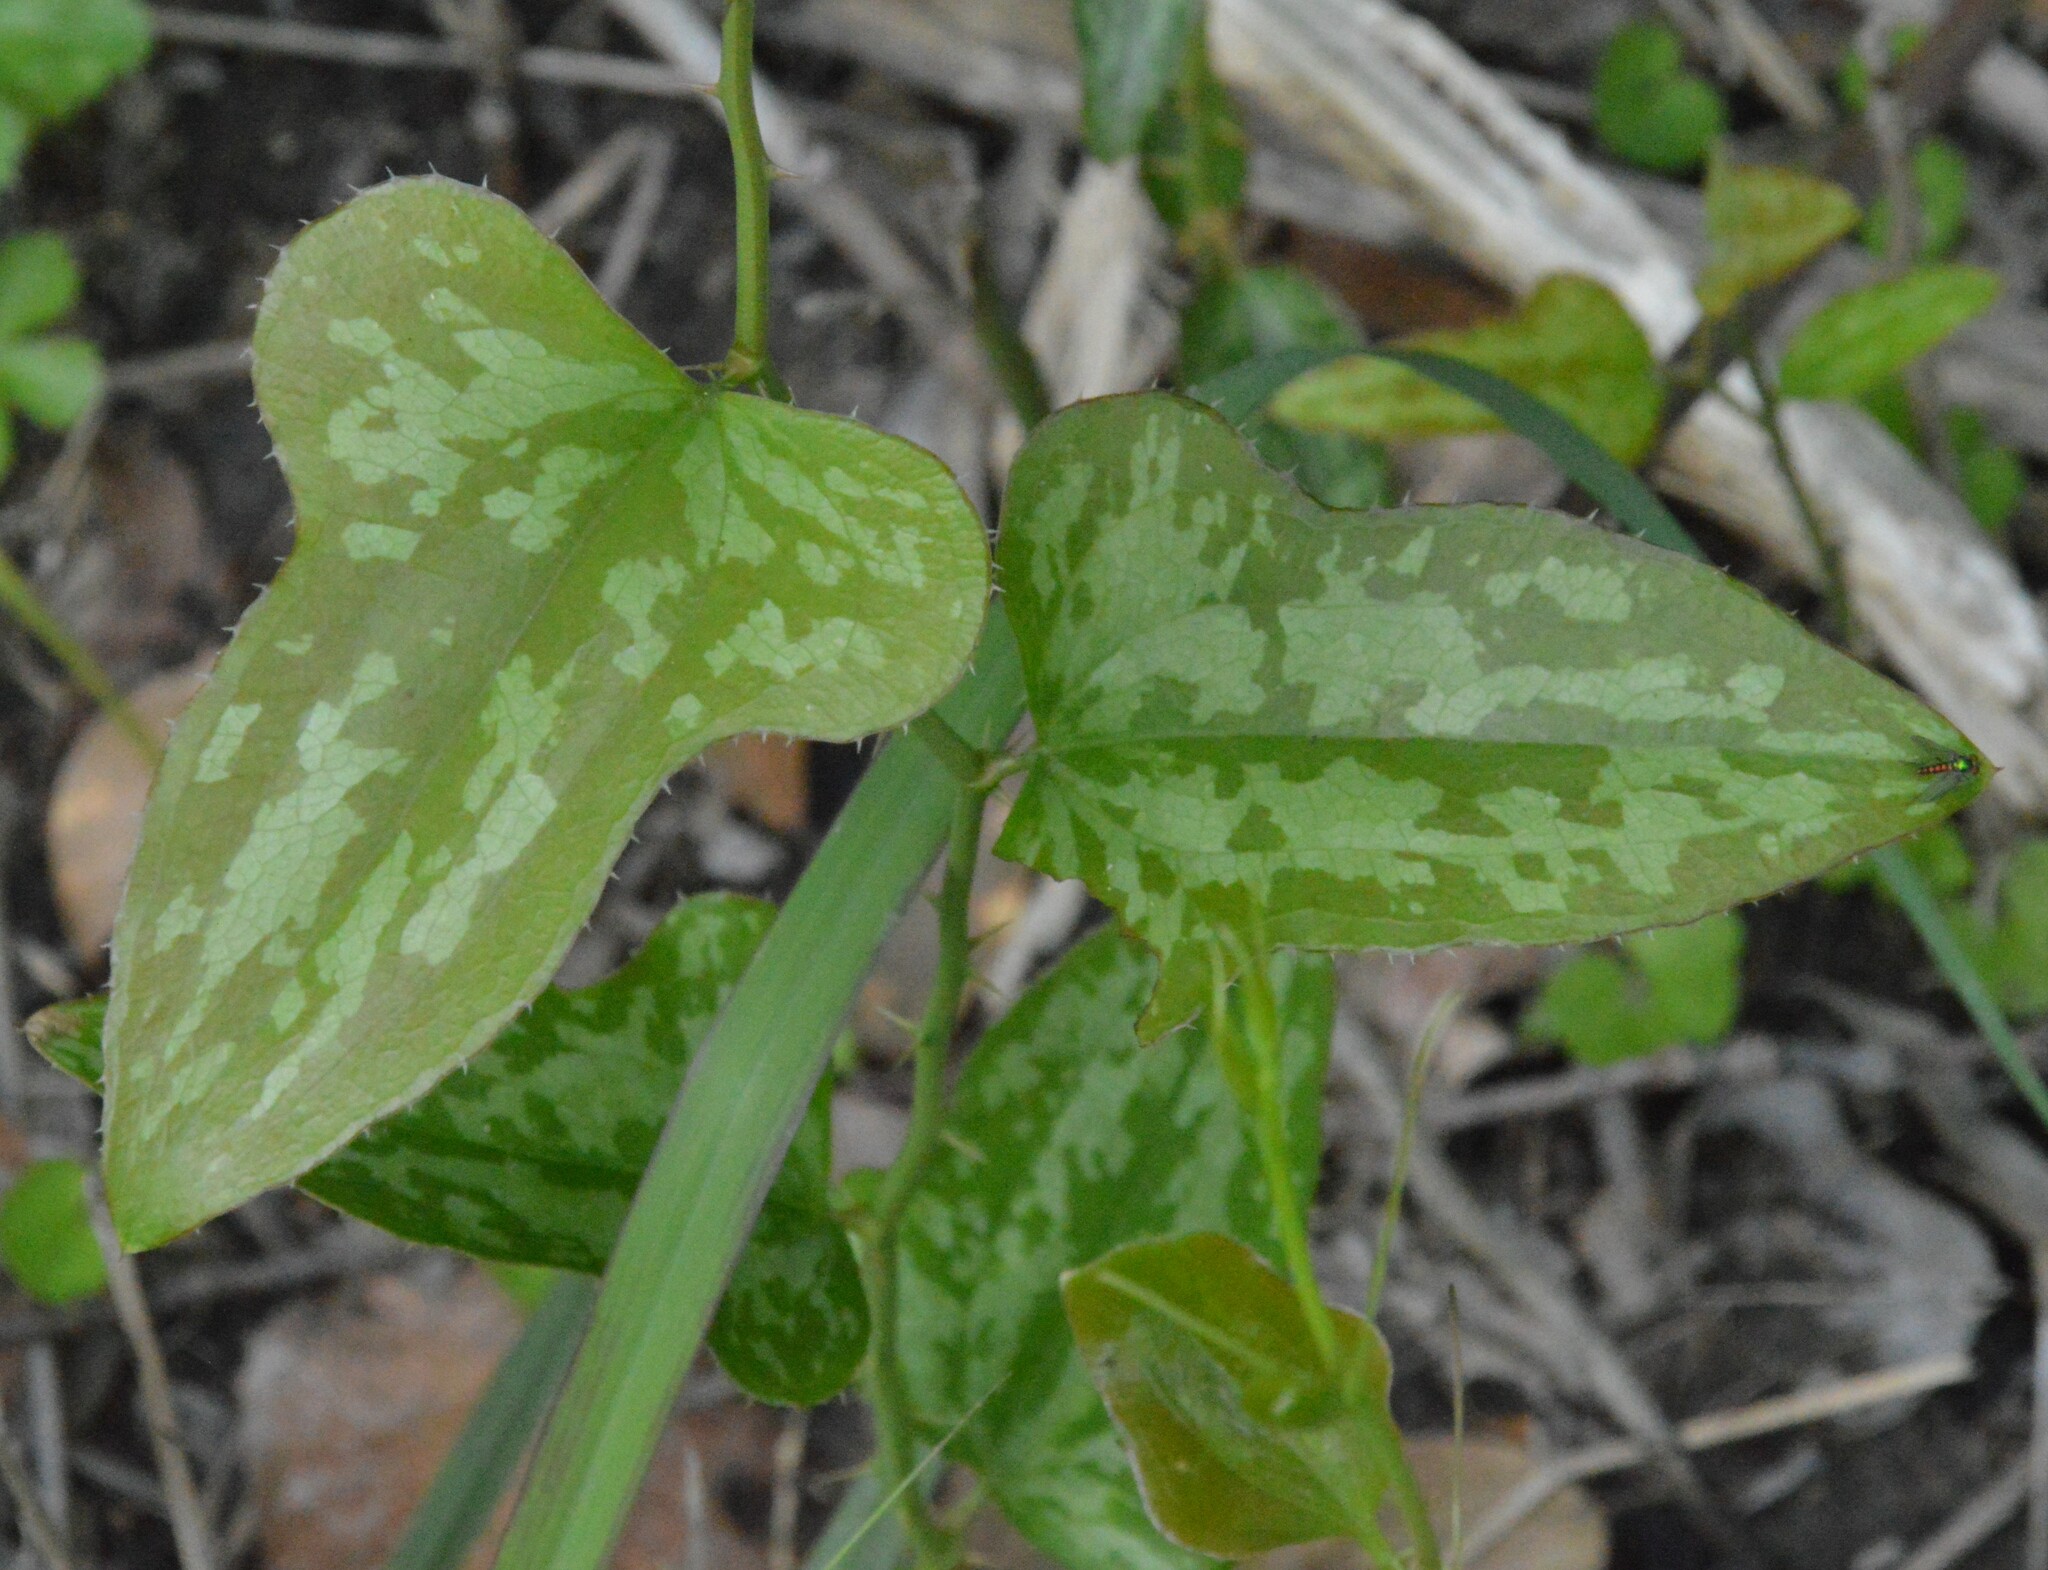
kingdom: Plantae
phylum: Tracheophyta
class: Liliopsida
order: Liliales
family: Smilacaceae
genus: Smilax
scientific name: Smilax bona-nox
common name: Catbrier
